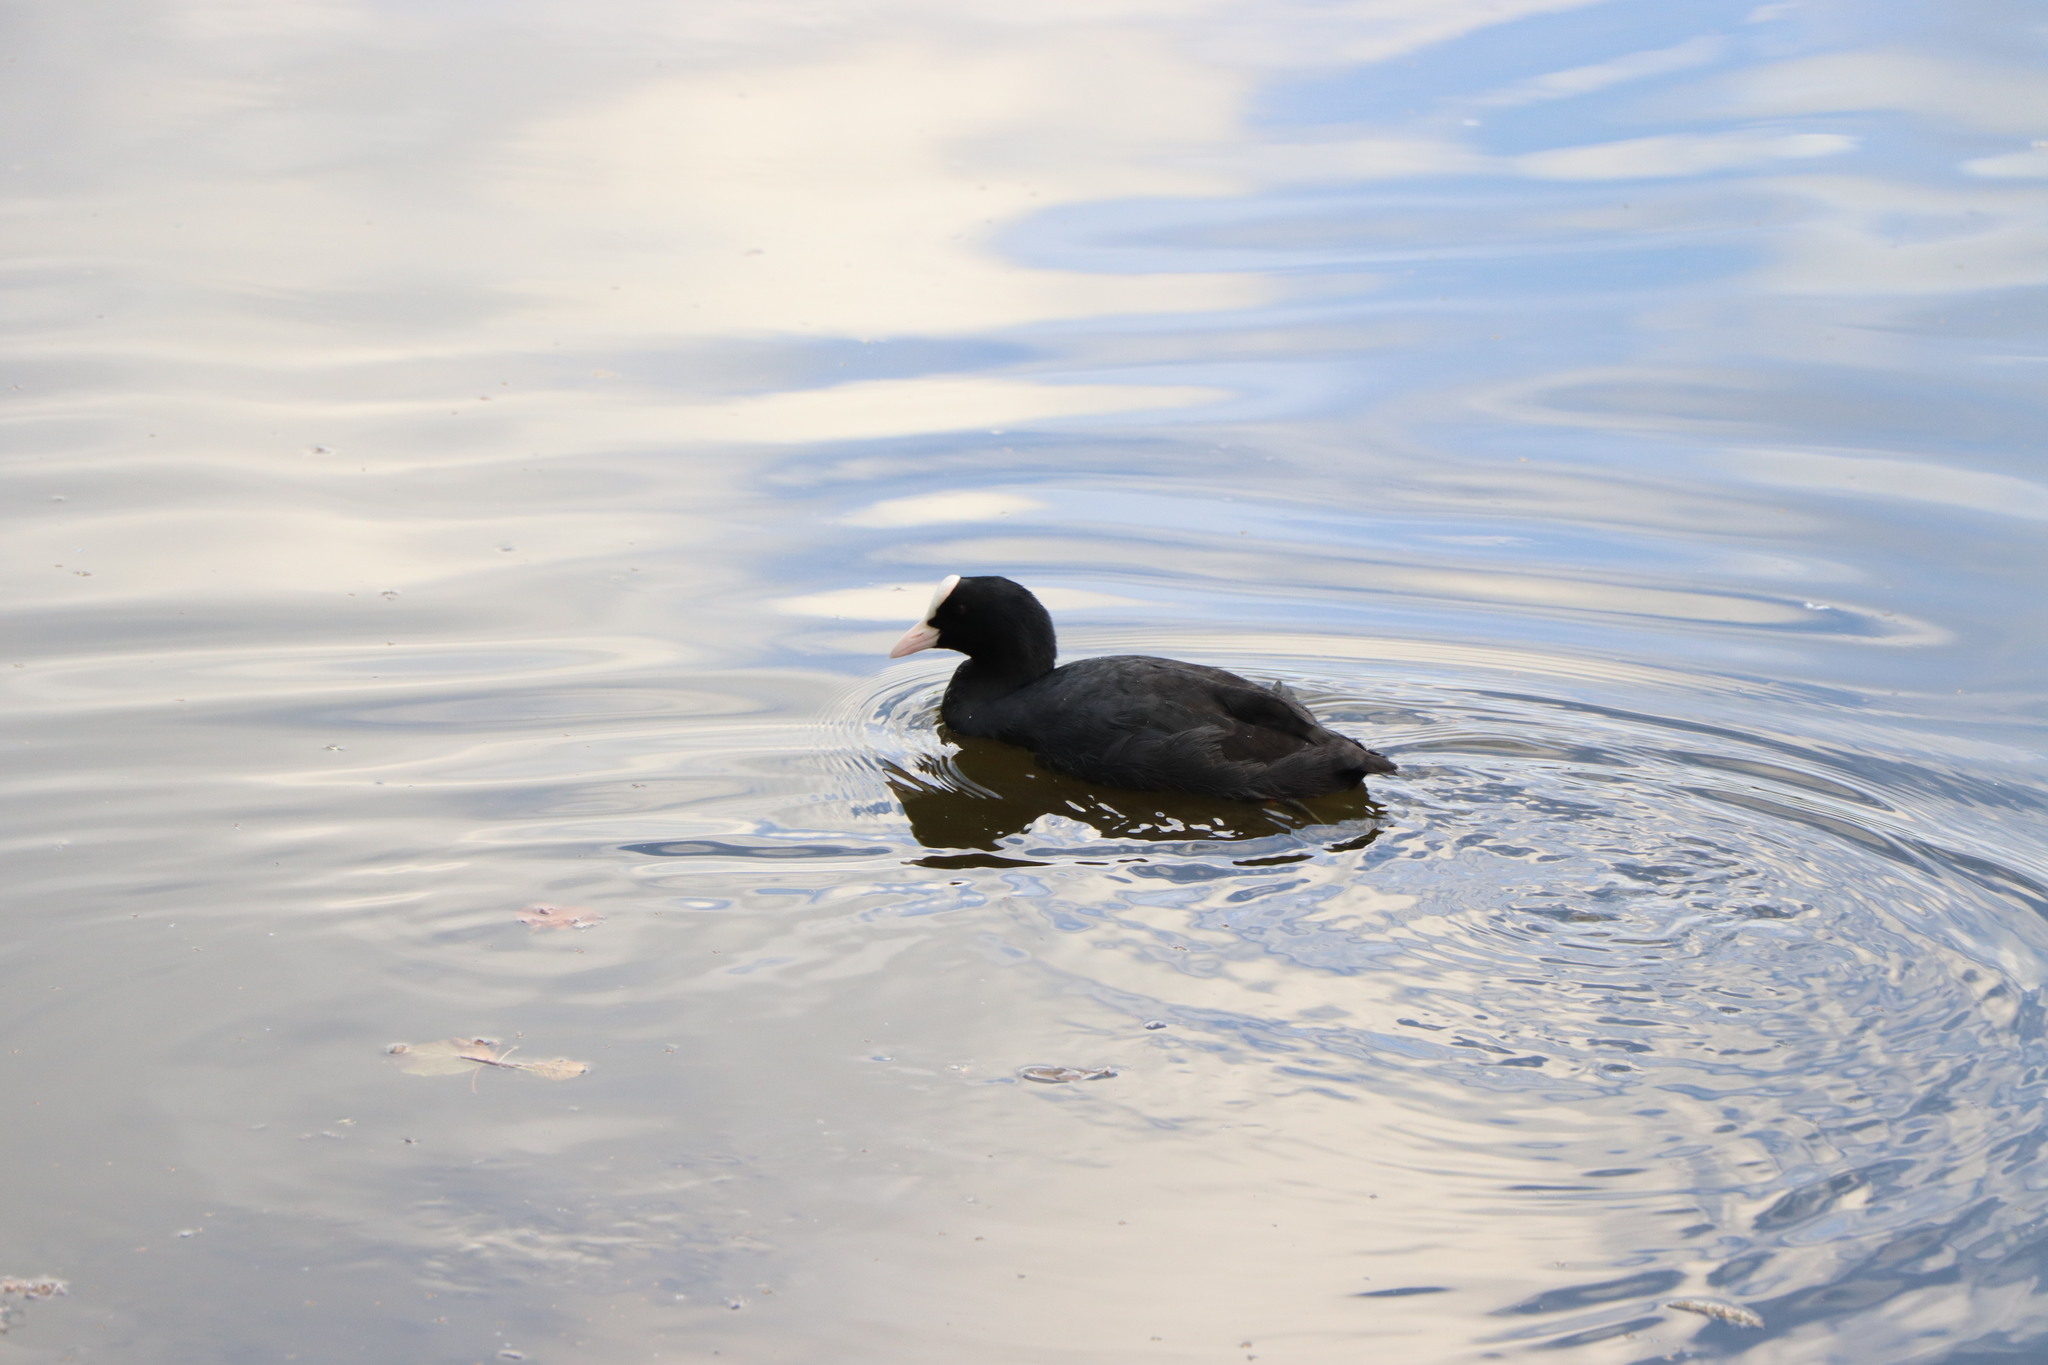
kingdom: Animalia
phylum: Chordata
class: Aves
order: Gruiformes
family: Rallidae
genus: Fulica
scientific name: Fulica atra
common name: Eurasian coot
